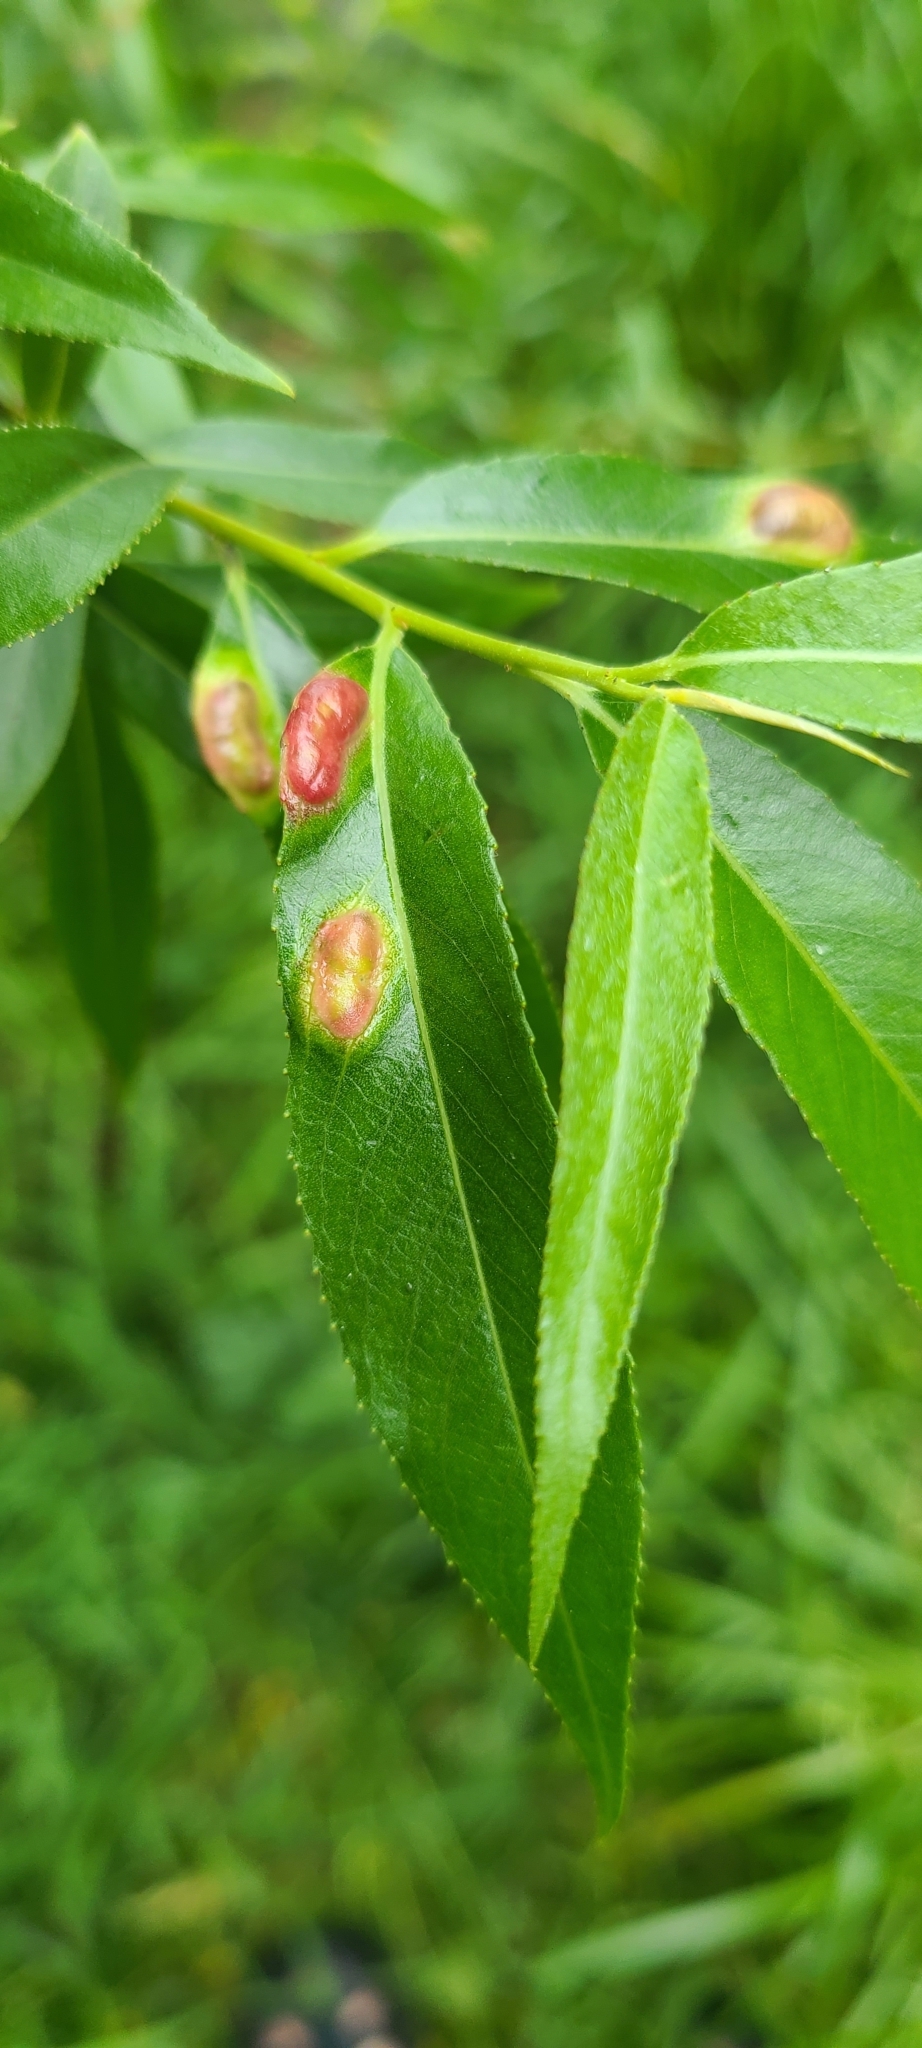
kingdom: Animalia
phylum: Arthropoda
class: Insecta
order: Hymenoptera
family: Tenthredinidae
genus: Pontania
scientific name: Pontania proxima
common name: Common sawfly
